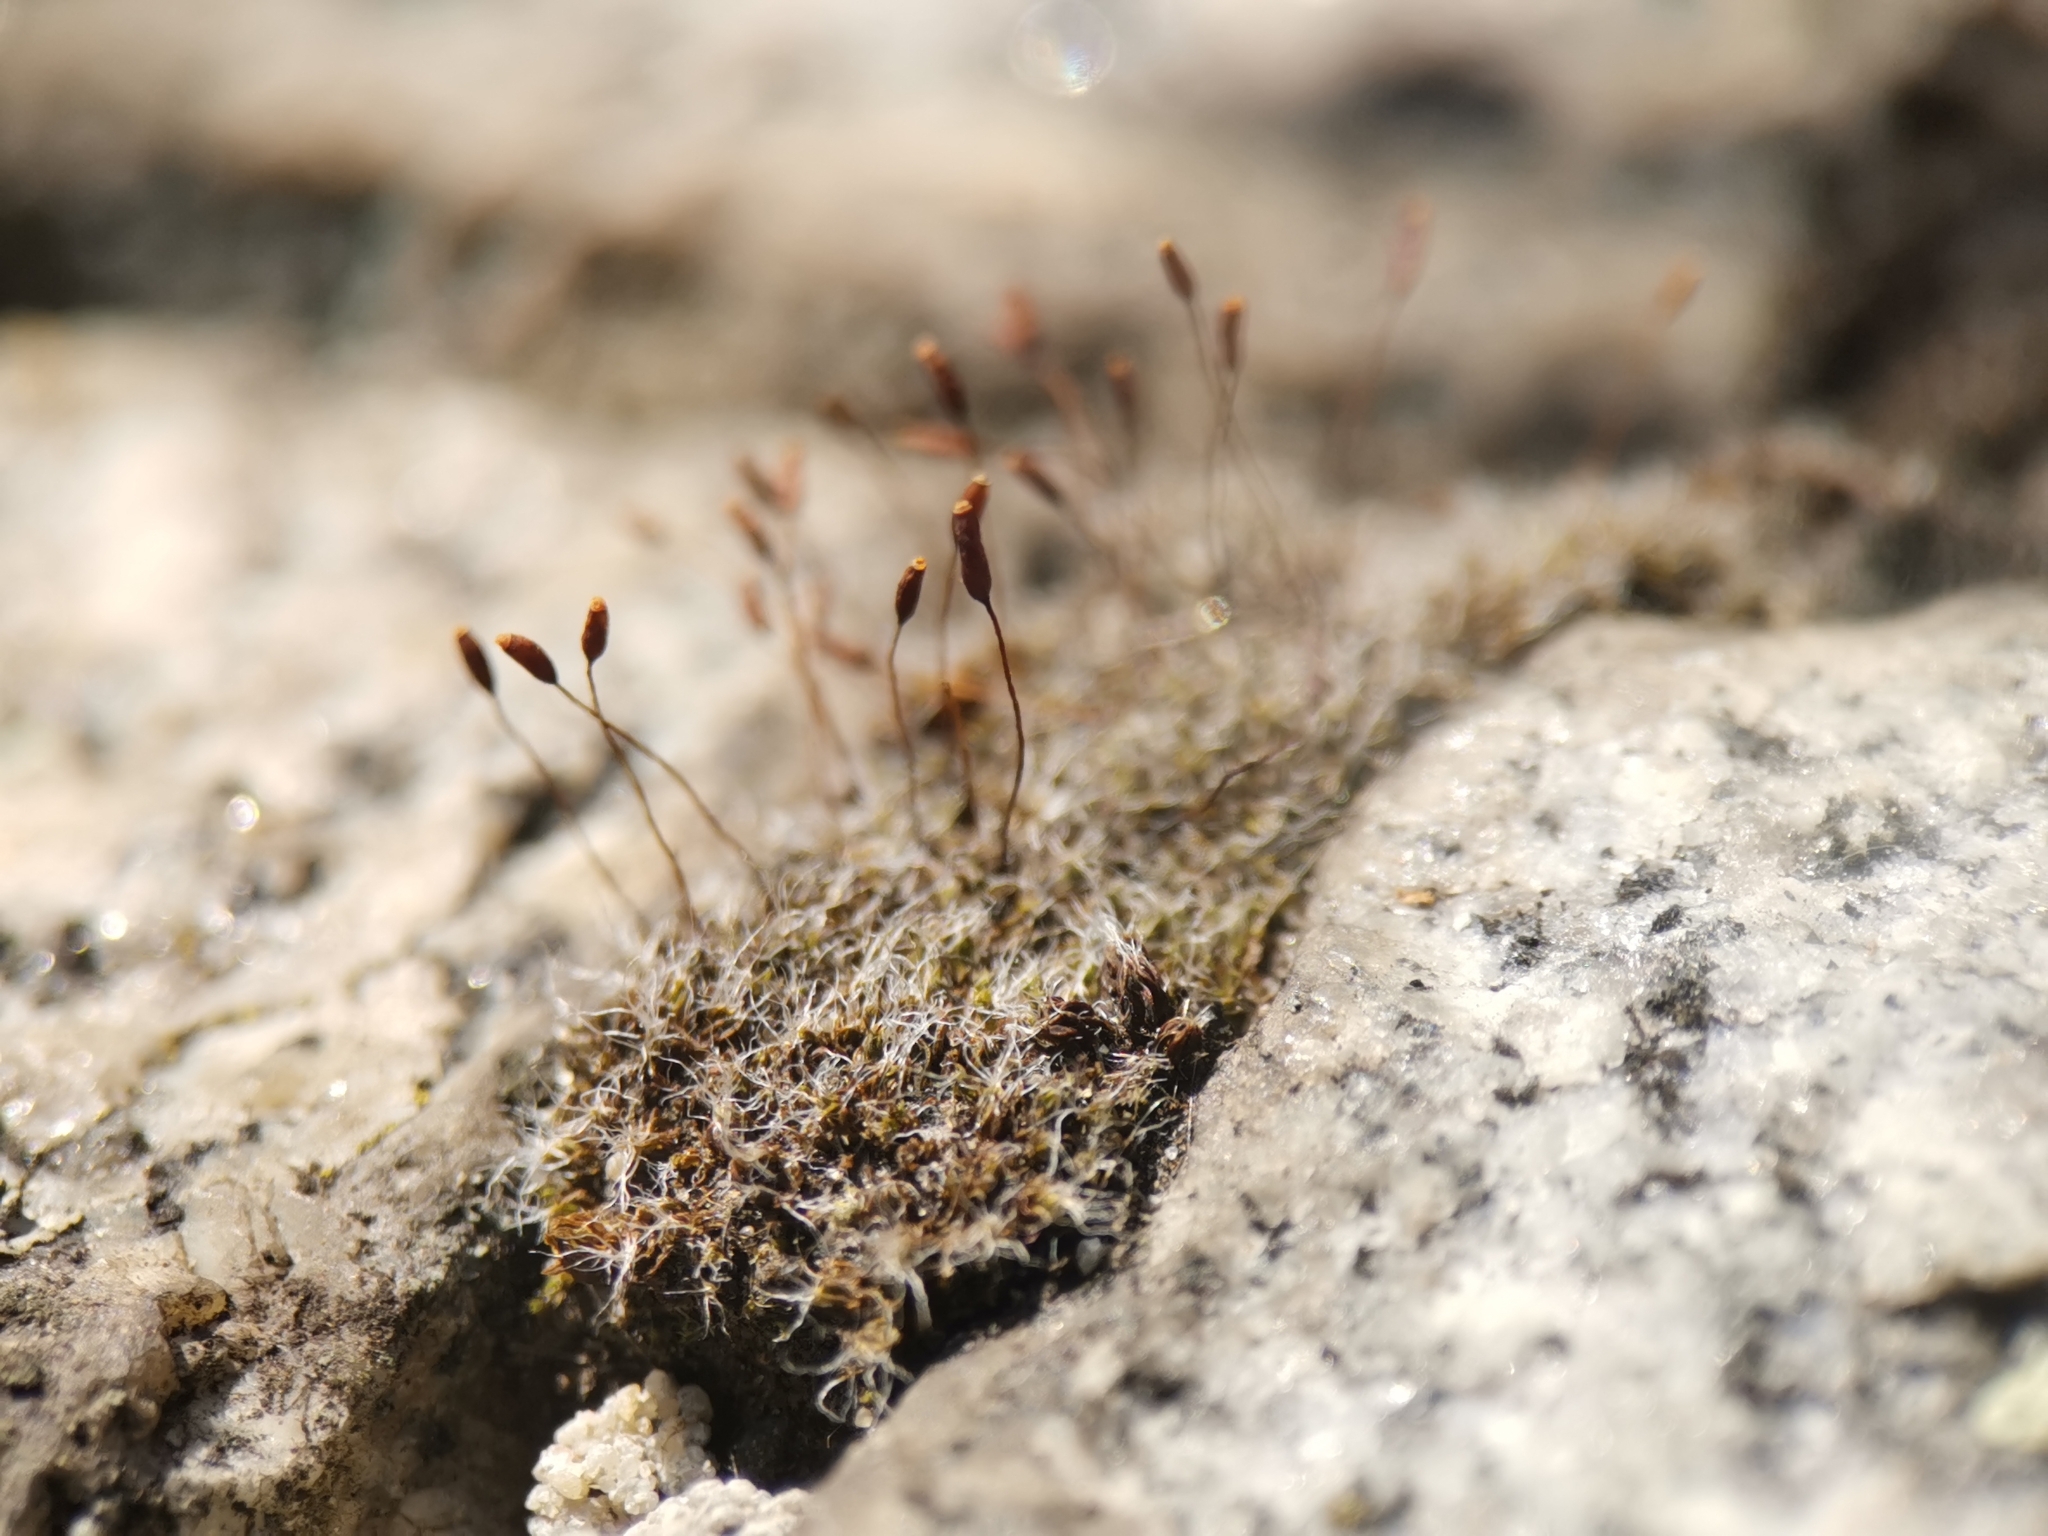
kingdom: Plantae
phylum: Bryophyta
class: Bryopsida
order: Pottiales
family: Pottiaceae
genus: Tortula
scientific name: Tortula muralis
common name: Wall screw-moss
